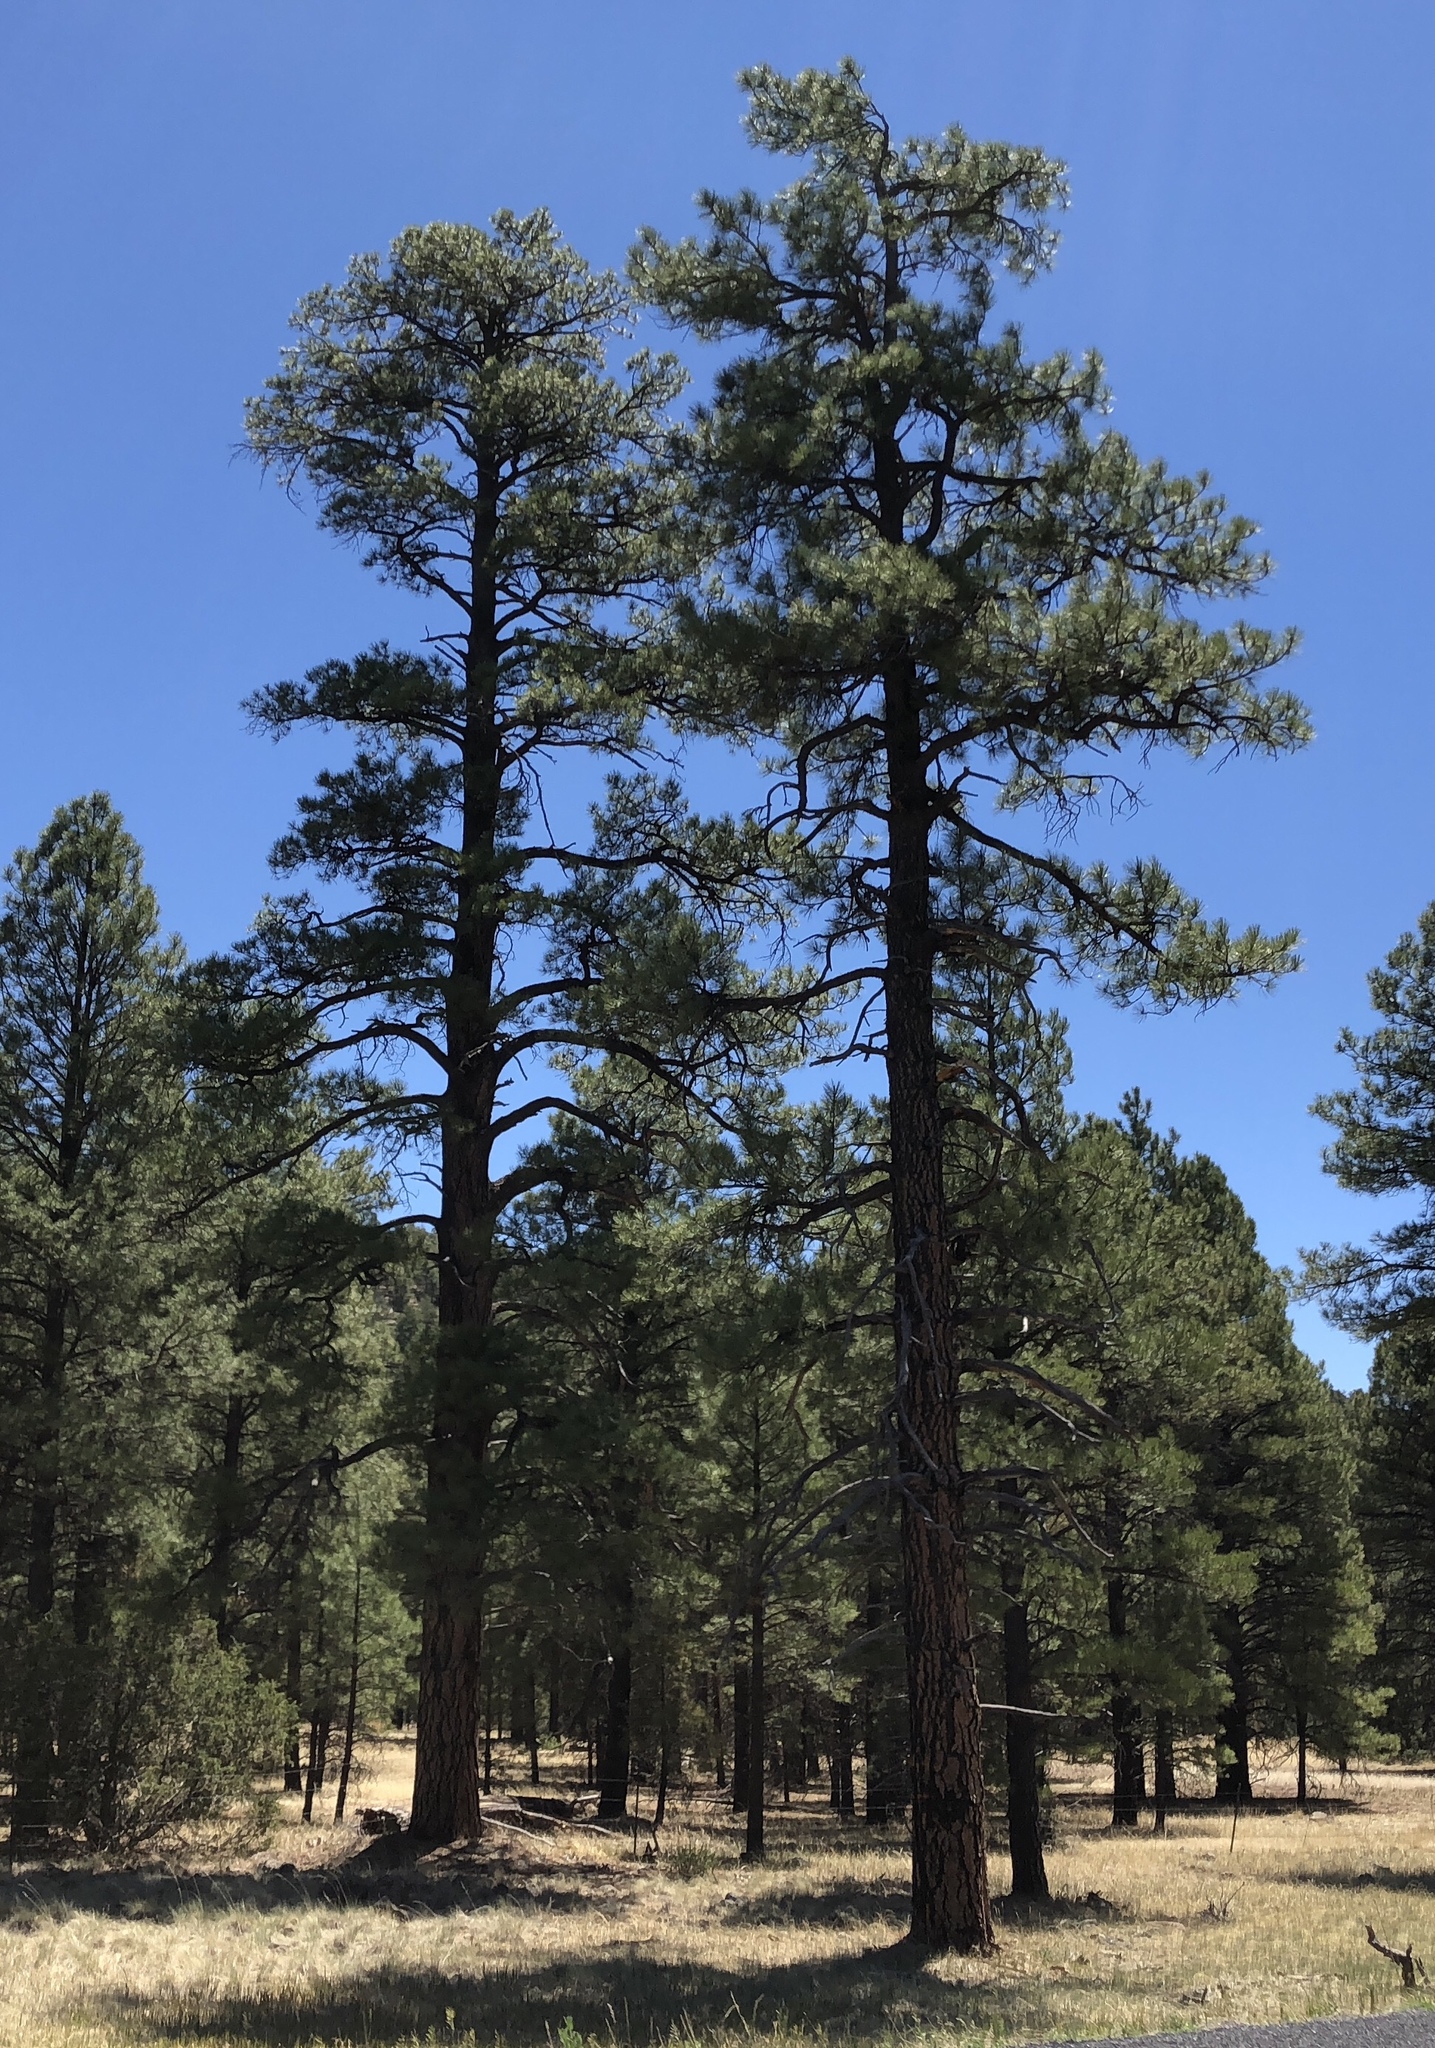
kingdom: Plantae
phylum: Tracheophyta
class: Pinopsida
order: Pinales
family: Pinaceae
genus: Pinus
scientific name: Pinus ponderosa
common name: Western yellow-pine
